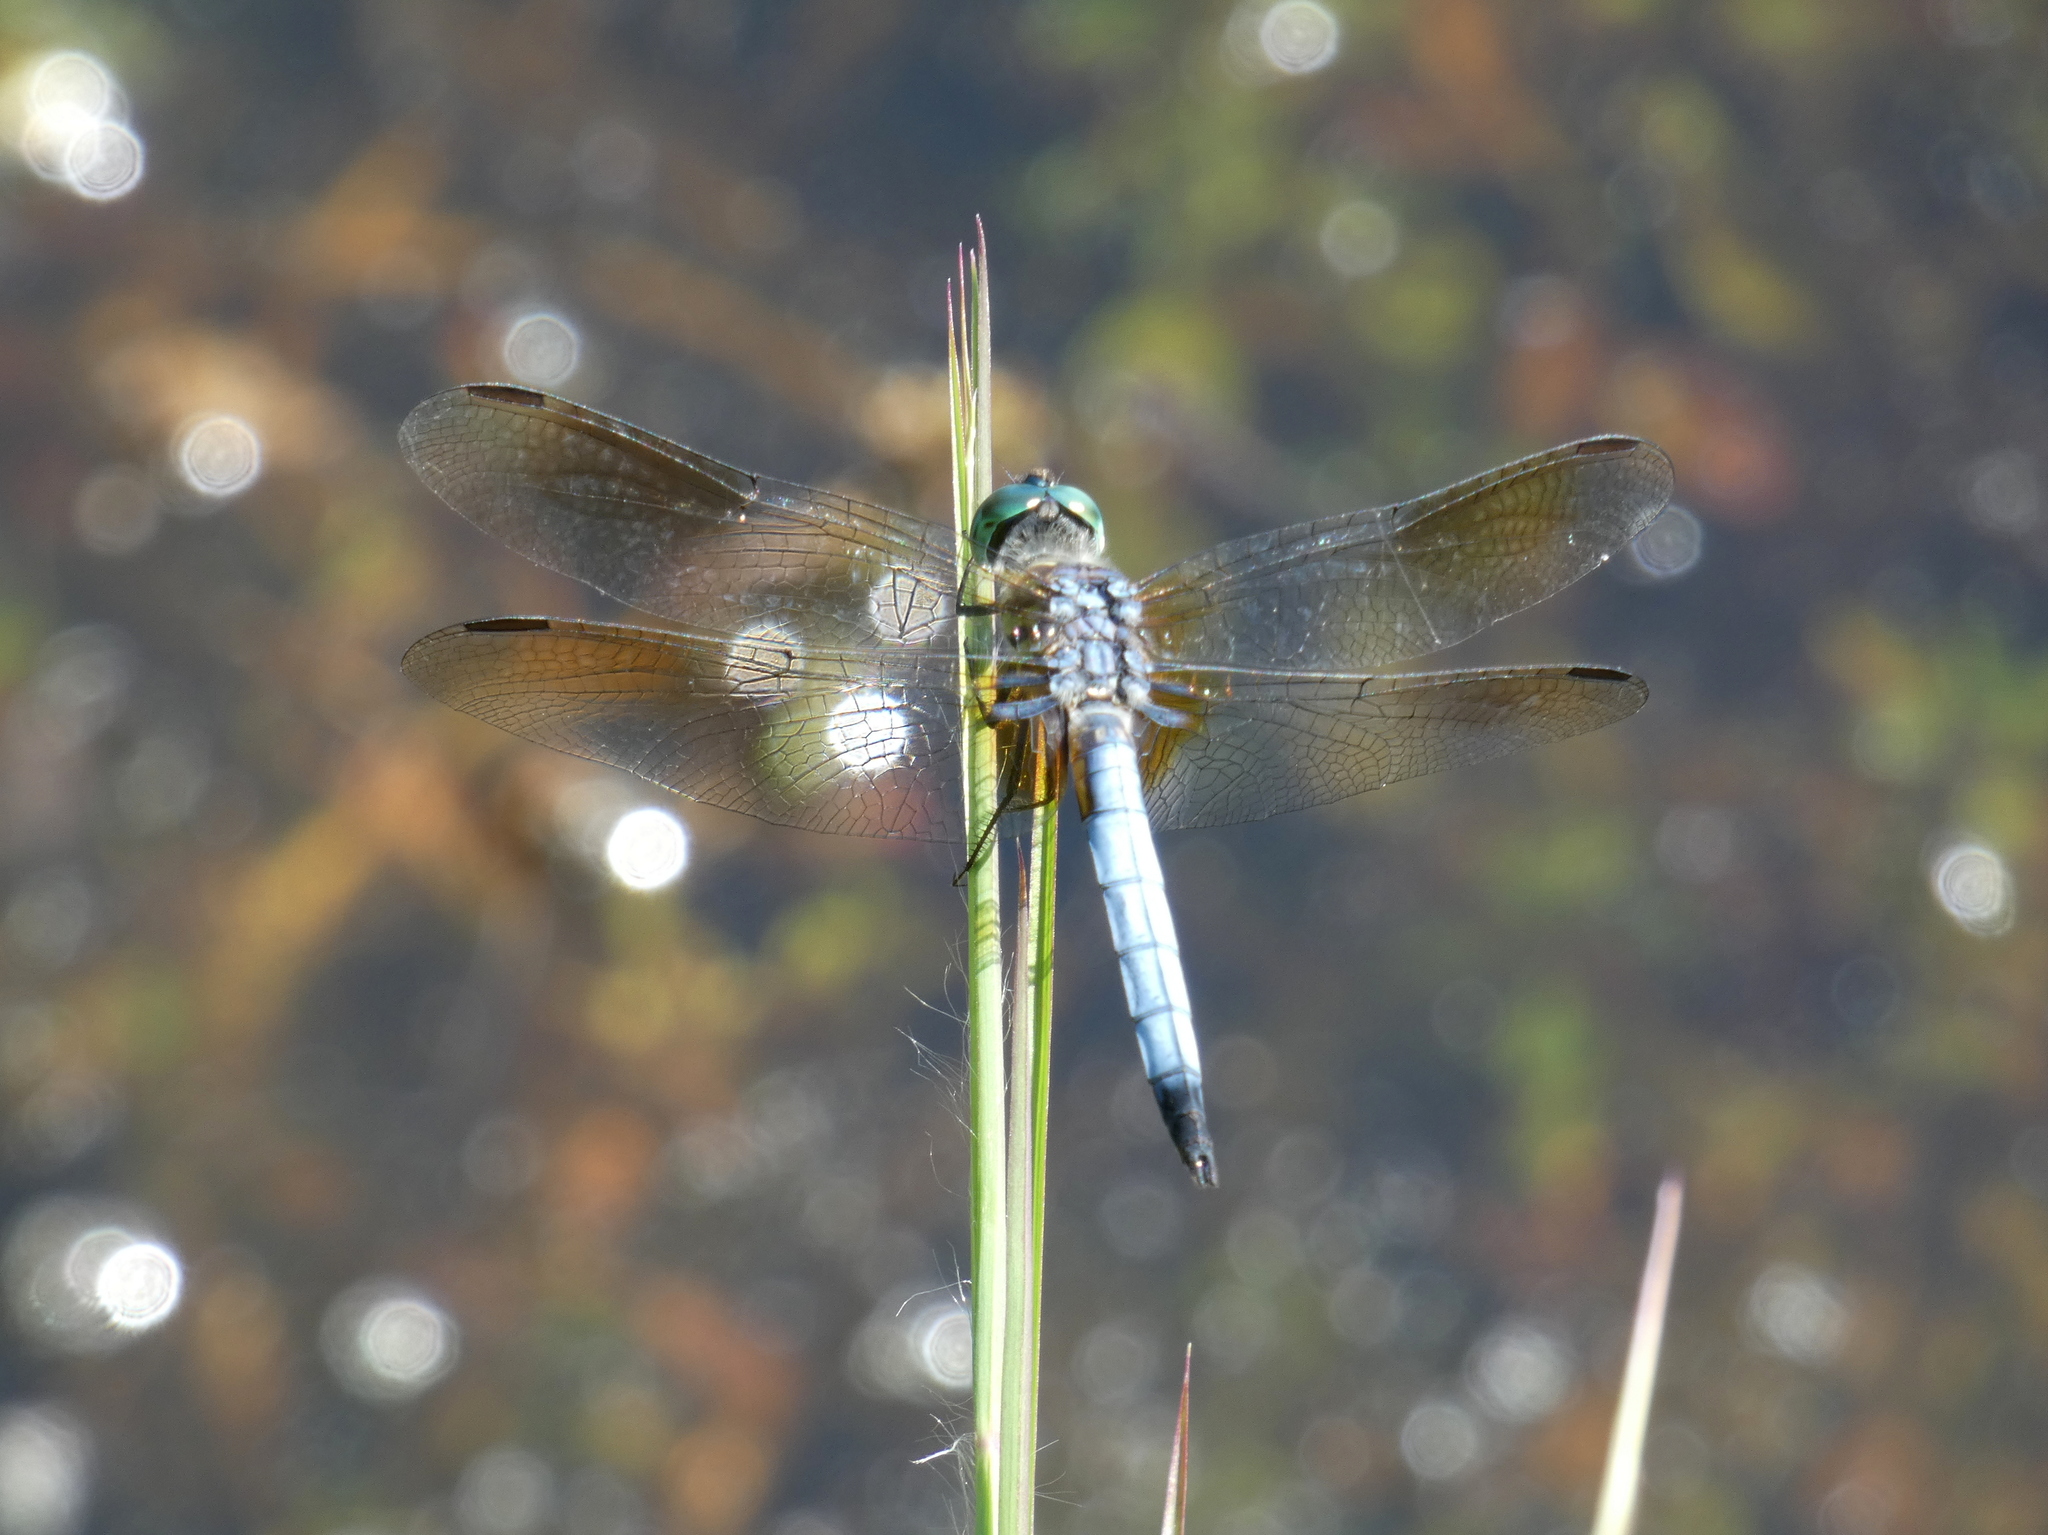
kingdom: Animalia
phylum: Arthropoda
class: Insecta
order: Odonata
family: Libellulidae
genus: Pachydiplax
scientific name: Pachydiplax longipennis
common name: Blue dasher
